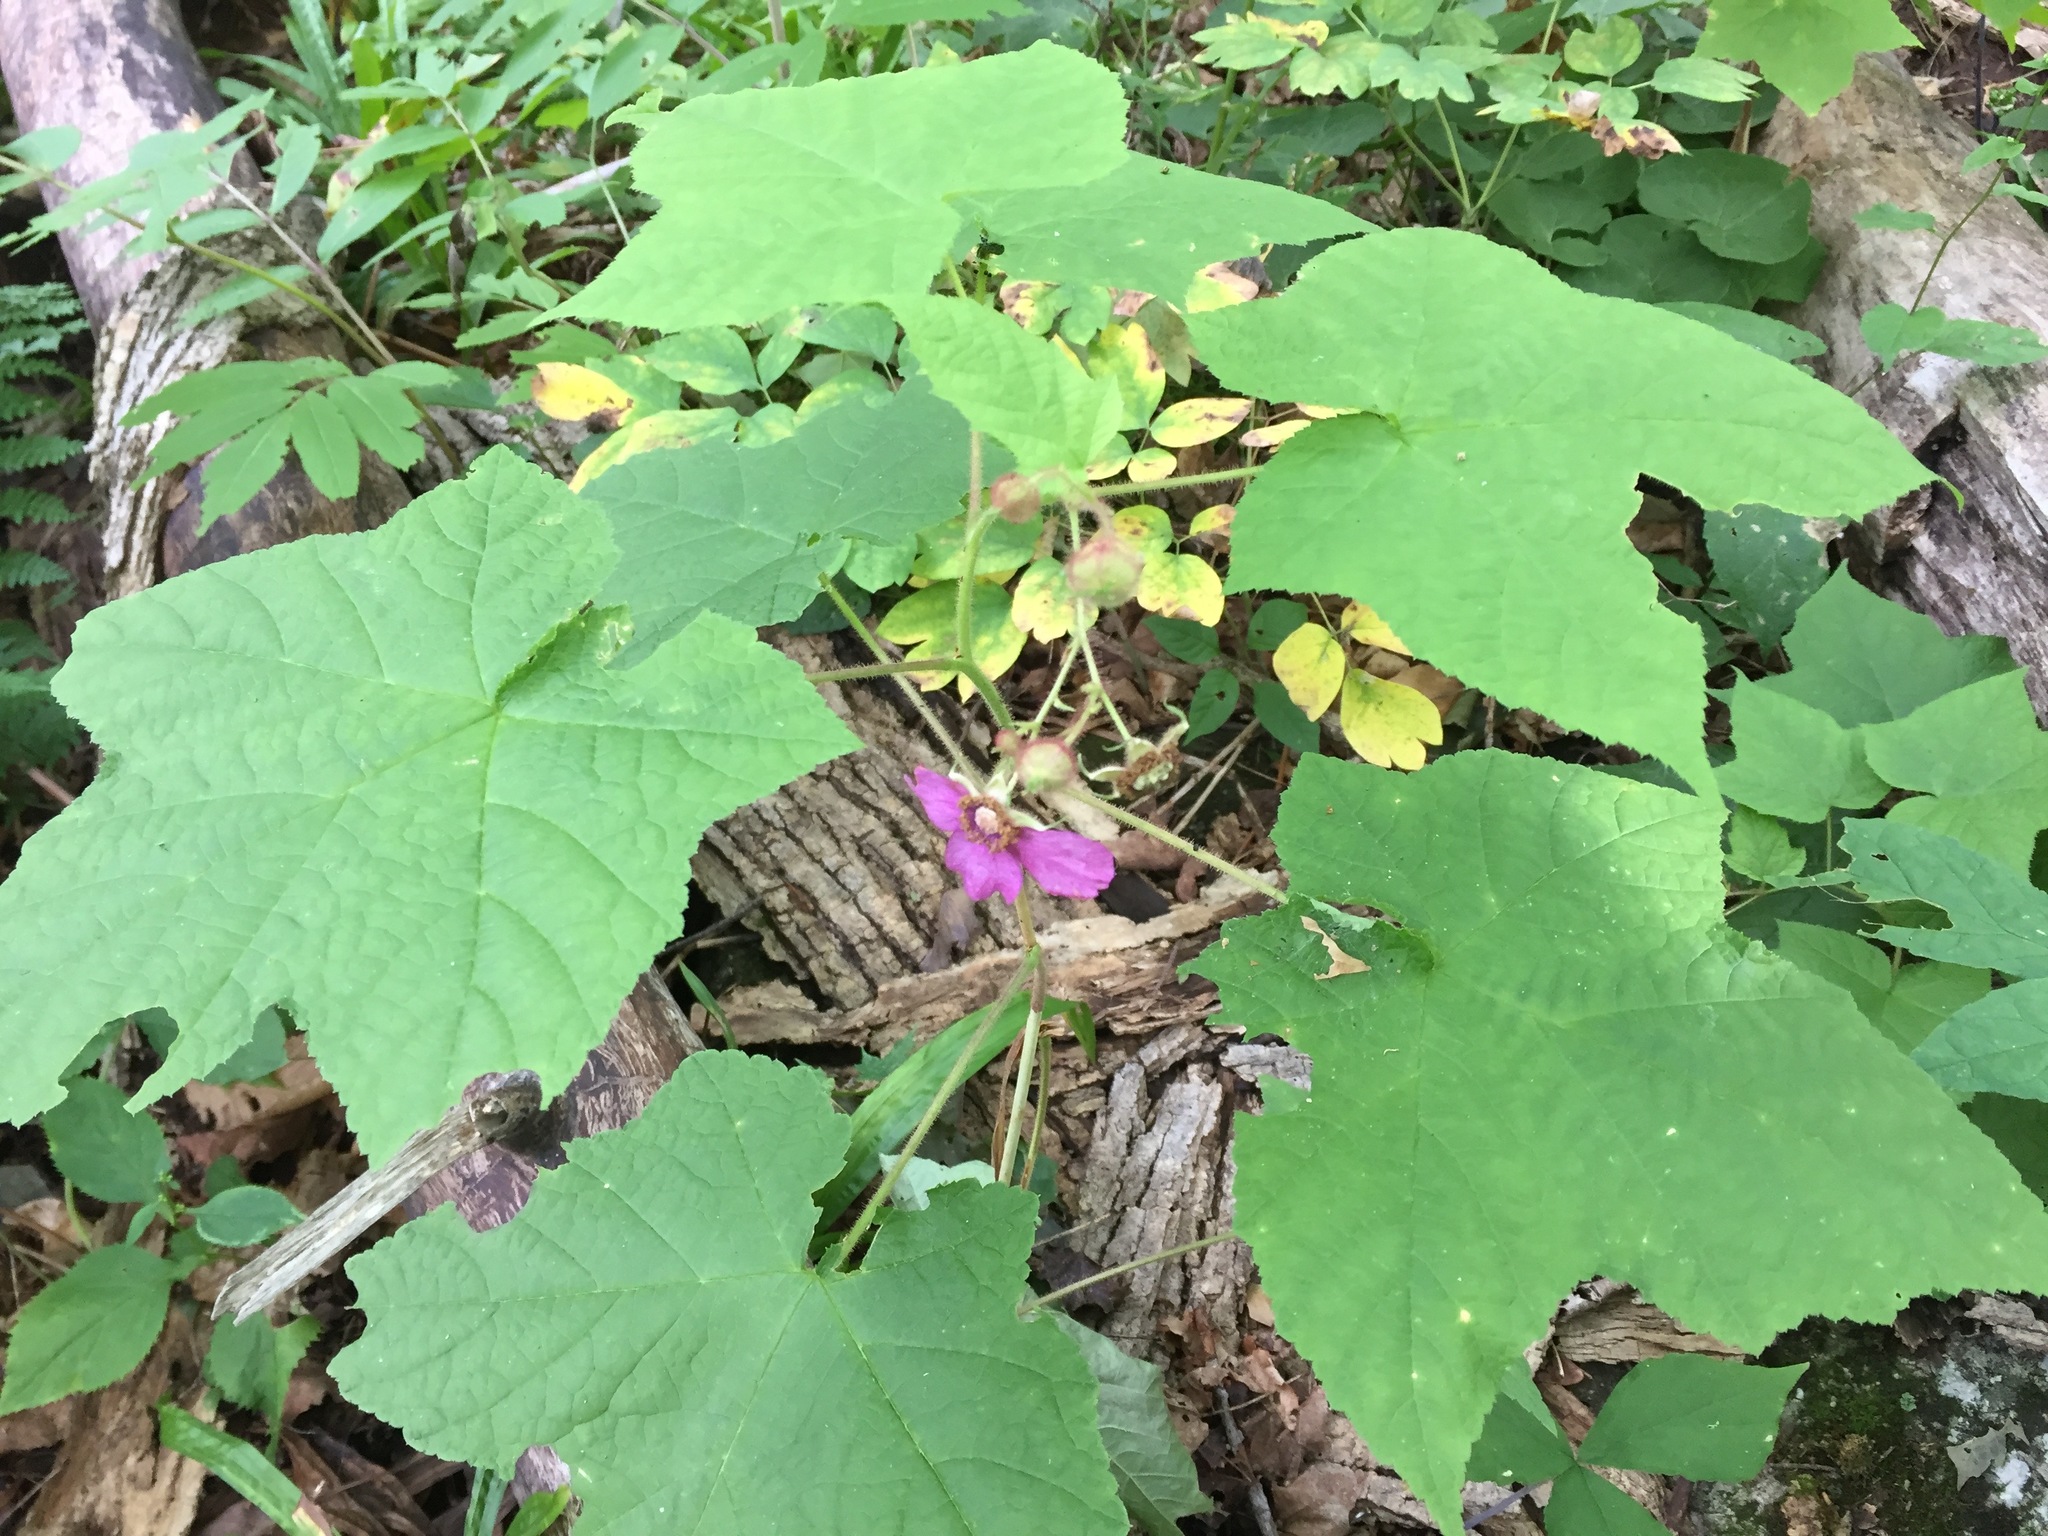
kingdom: Plantae
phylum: Tracheophyta
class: Magnoliopsida
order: Rosales
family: Rosaceae
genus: Rubus
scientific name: Rubus odoratus
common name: Purple-flowered raspberry
